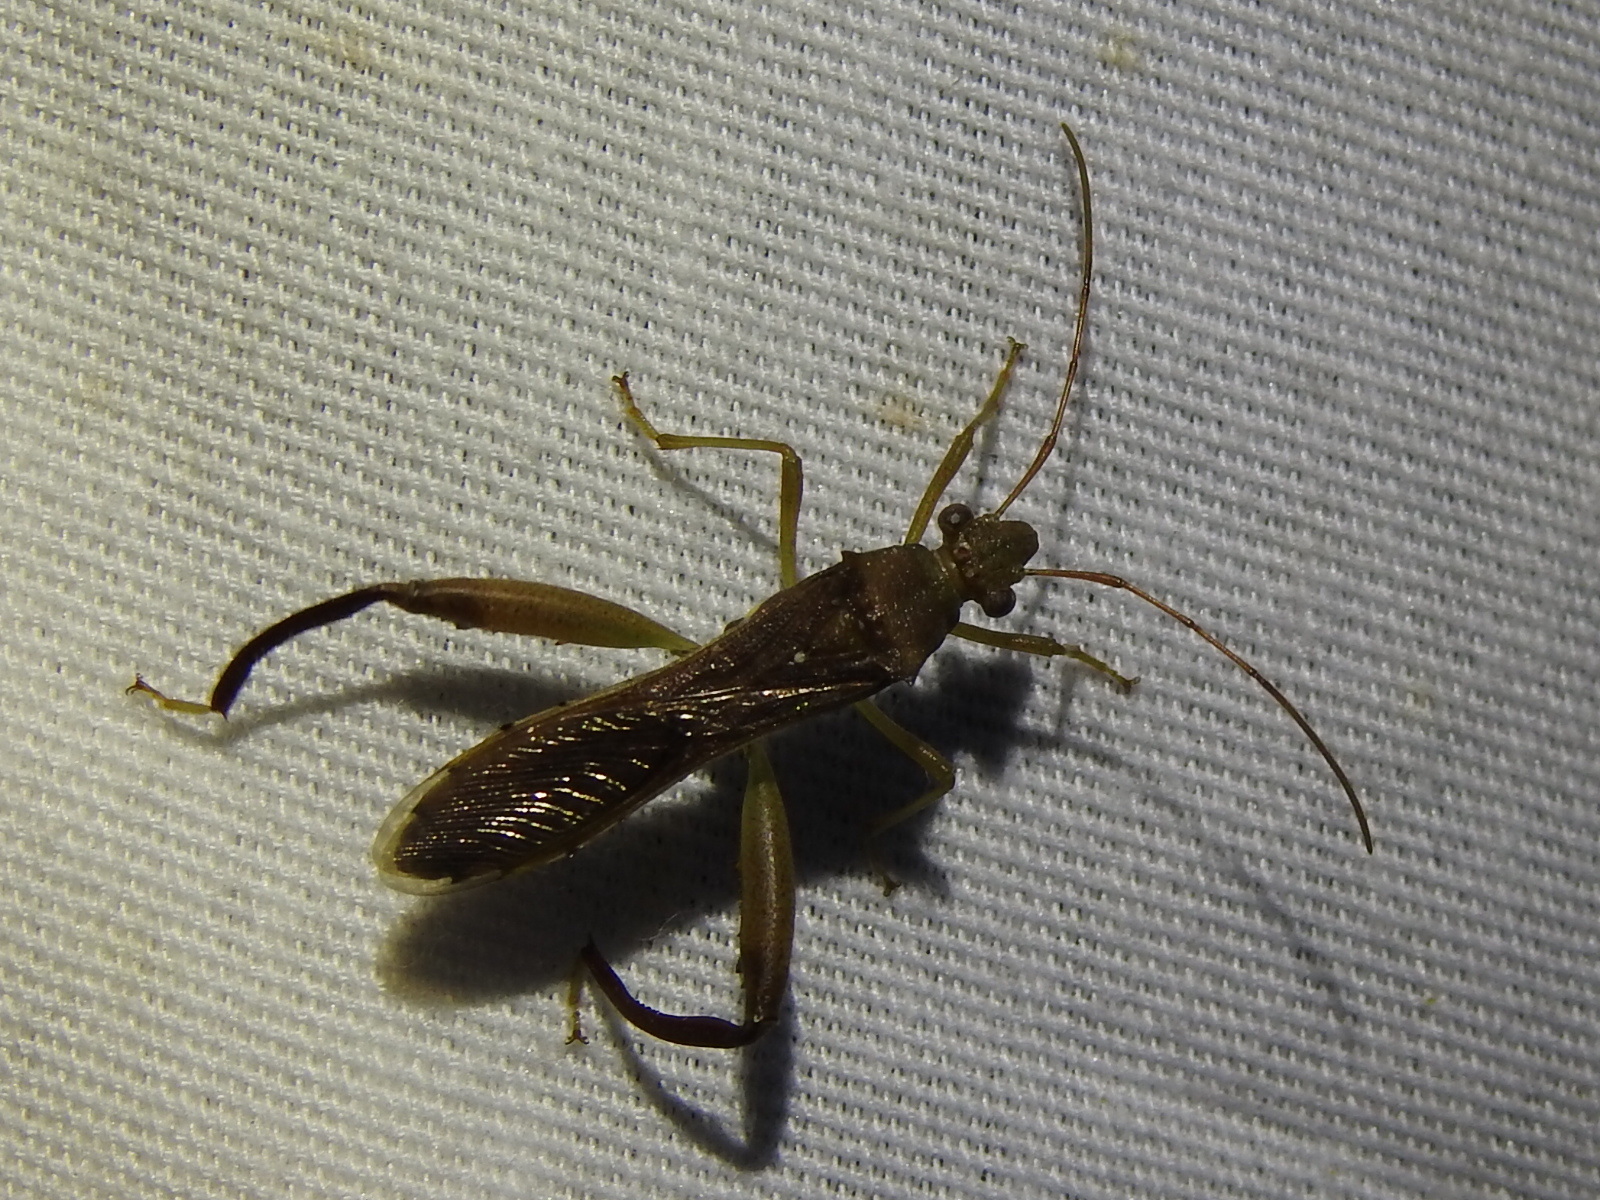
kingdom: Animalia
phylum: Arthropoda
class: Insecta
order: Hemiptera
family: Alydidae
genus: Hyalymenus
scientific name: Hyalymenus tarsatus
